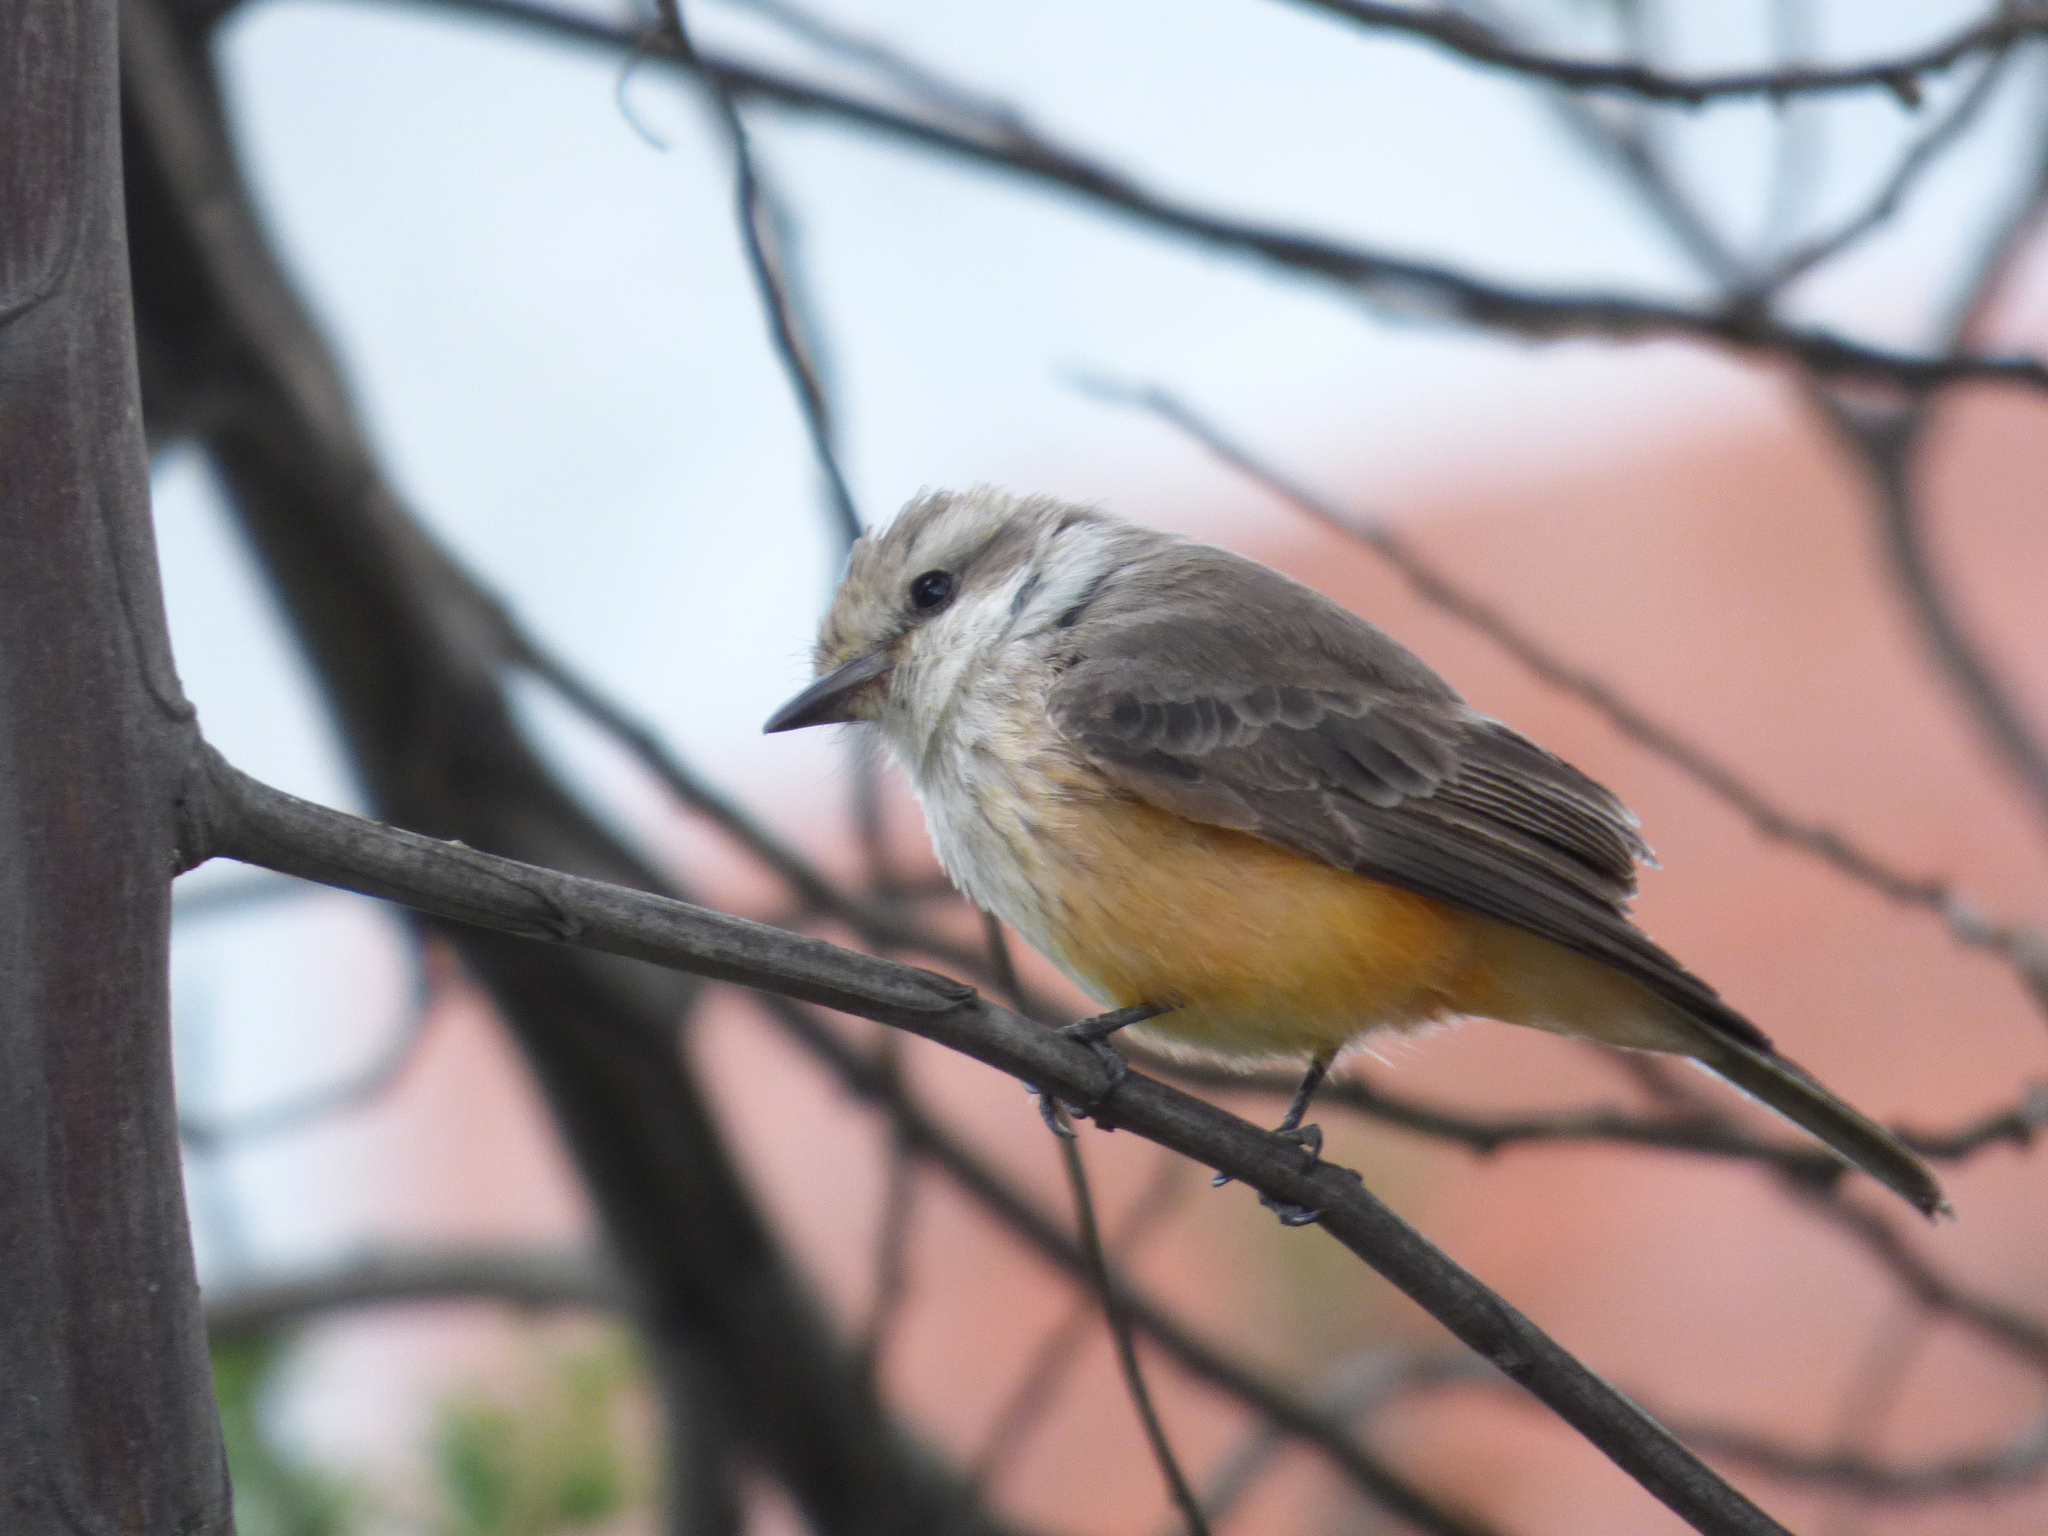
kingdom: Animalia
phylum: Chordata
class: Aves
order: Passeriformes
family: Tyrannidae
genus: Pyrocephalus
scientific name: Pyrocephalus rubinus
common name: Vermilion flycatcher
